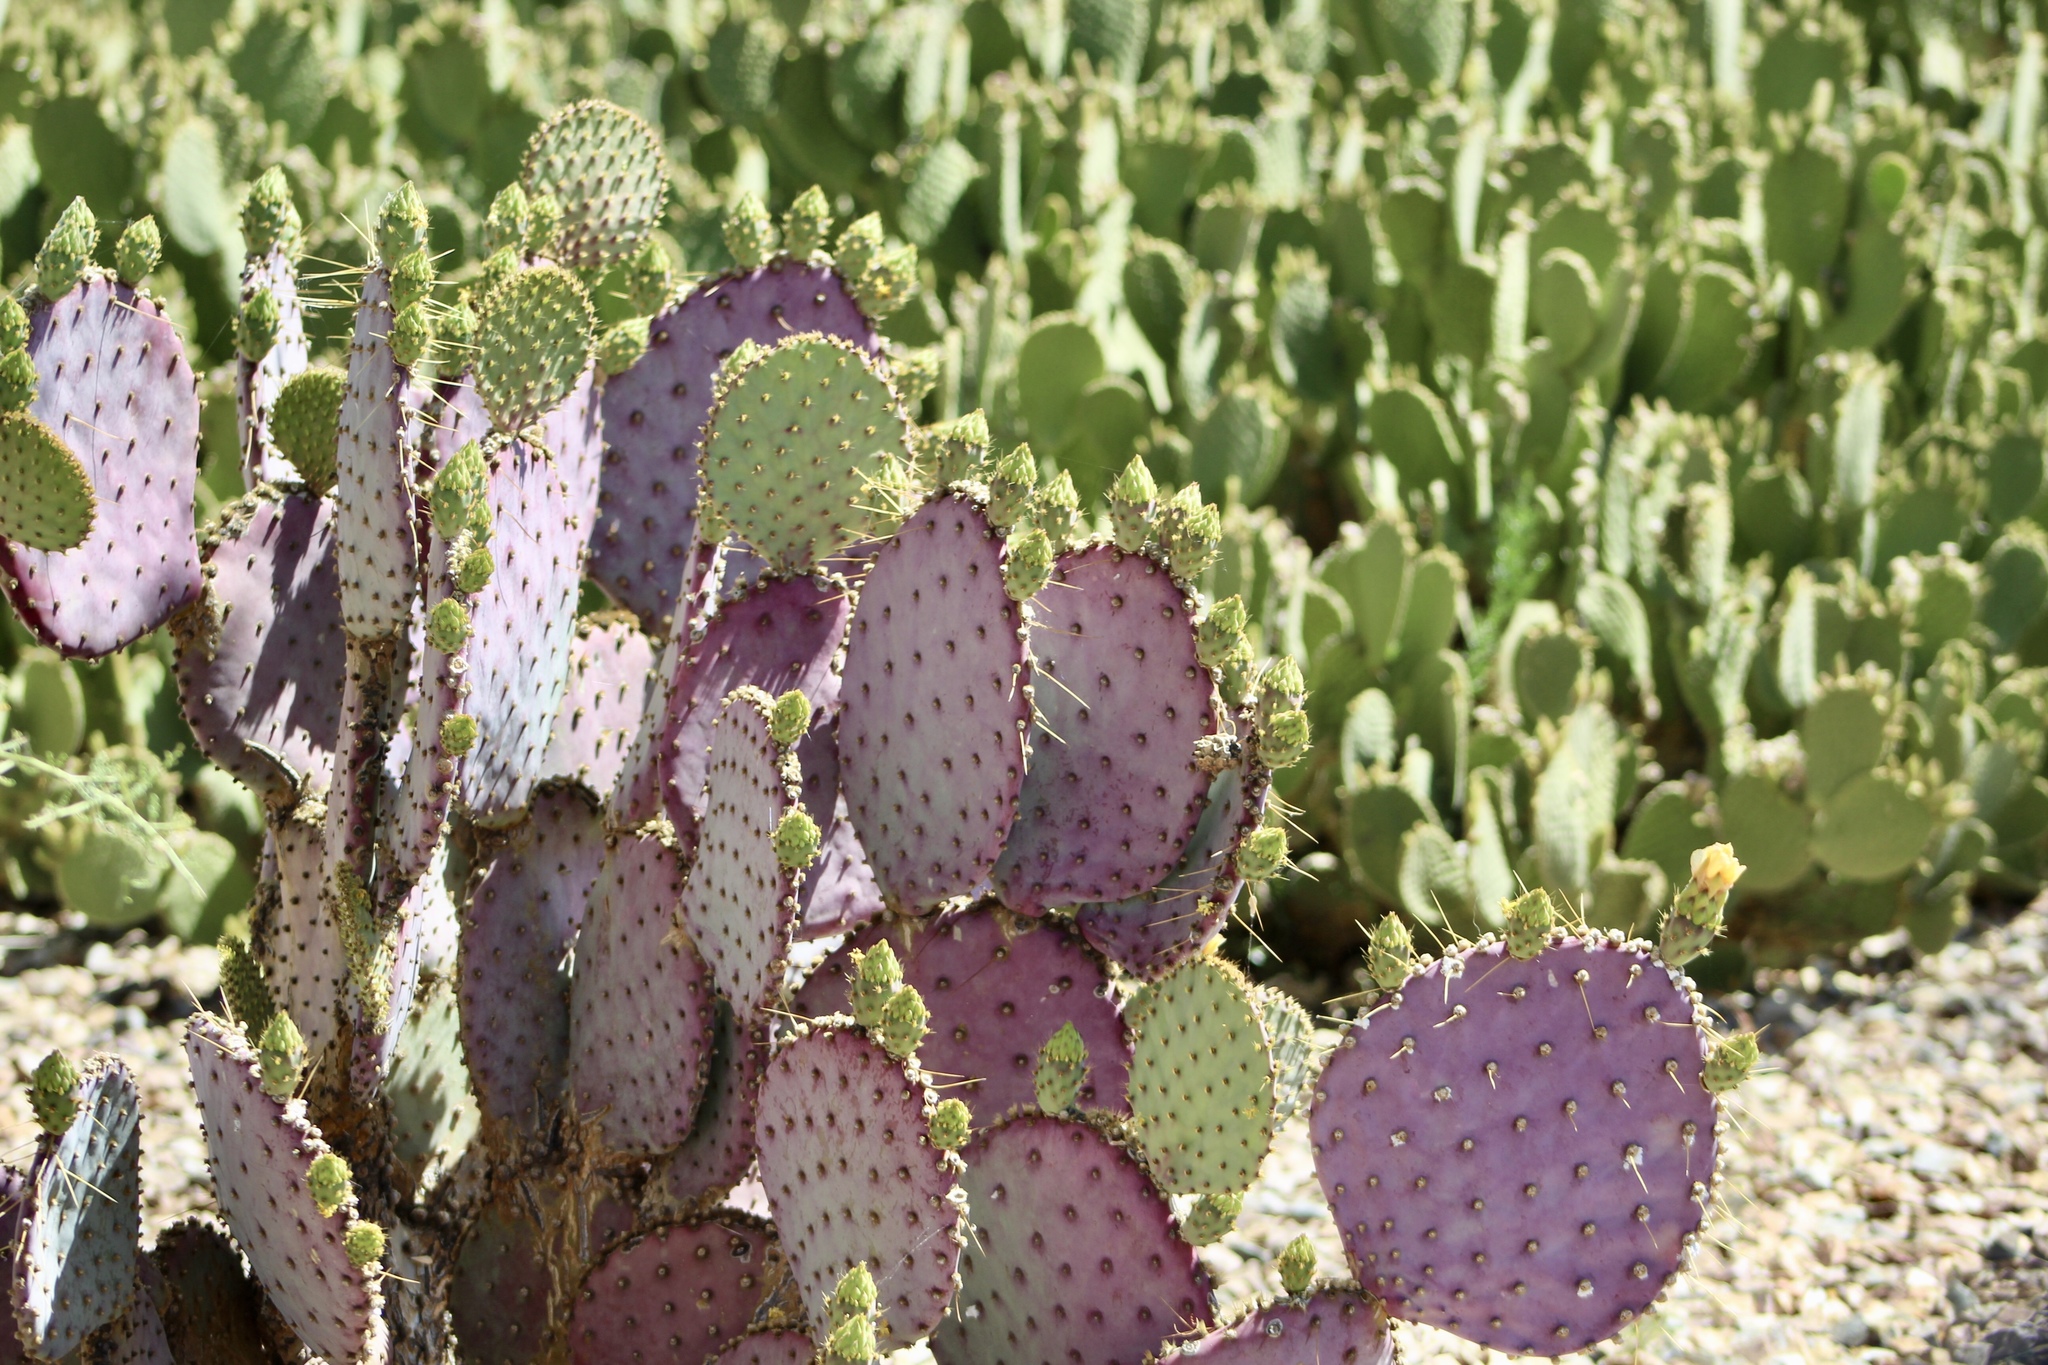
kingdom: Plantae
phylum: Tracheophyta
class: Magnoliopsida
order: Caryophyllales
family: Cactaceae
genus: Opuntia
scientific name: Opuntia gosseliniana
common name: Violet prickly-pear
